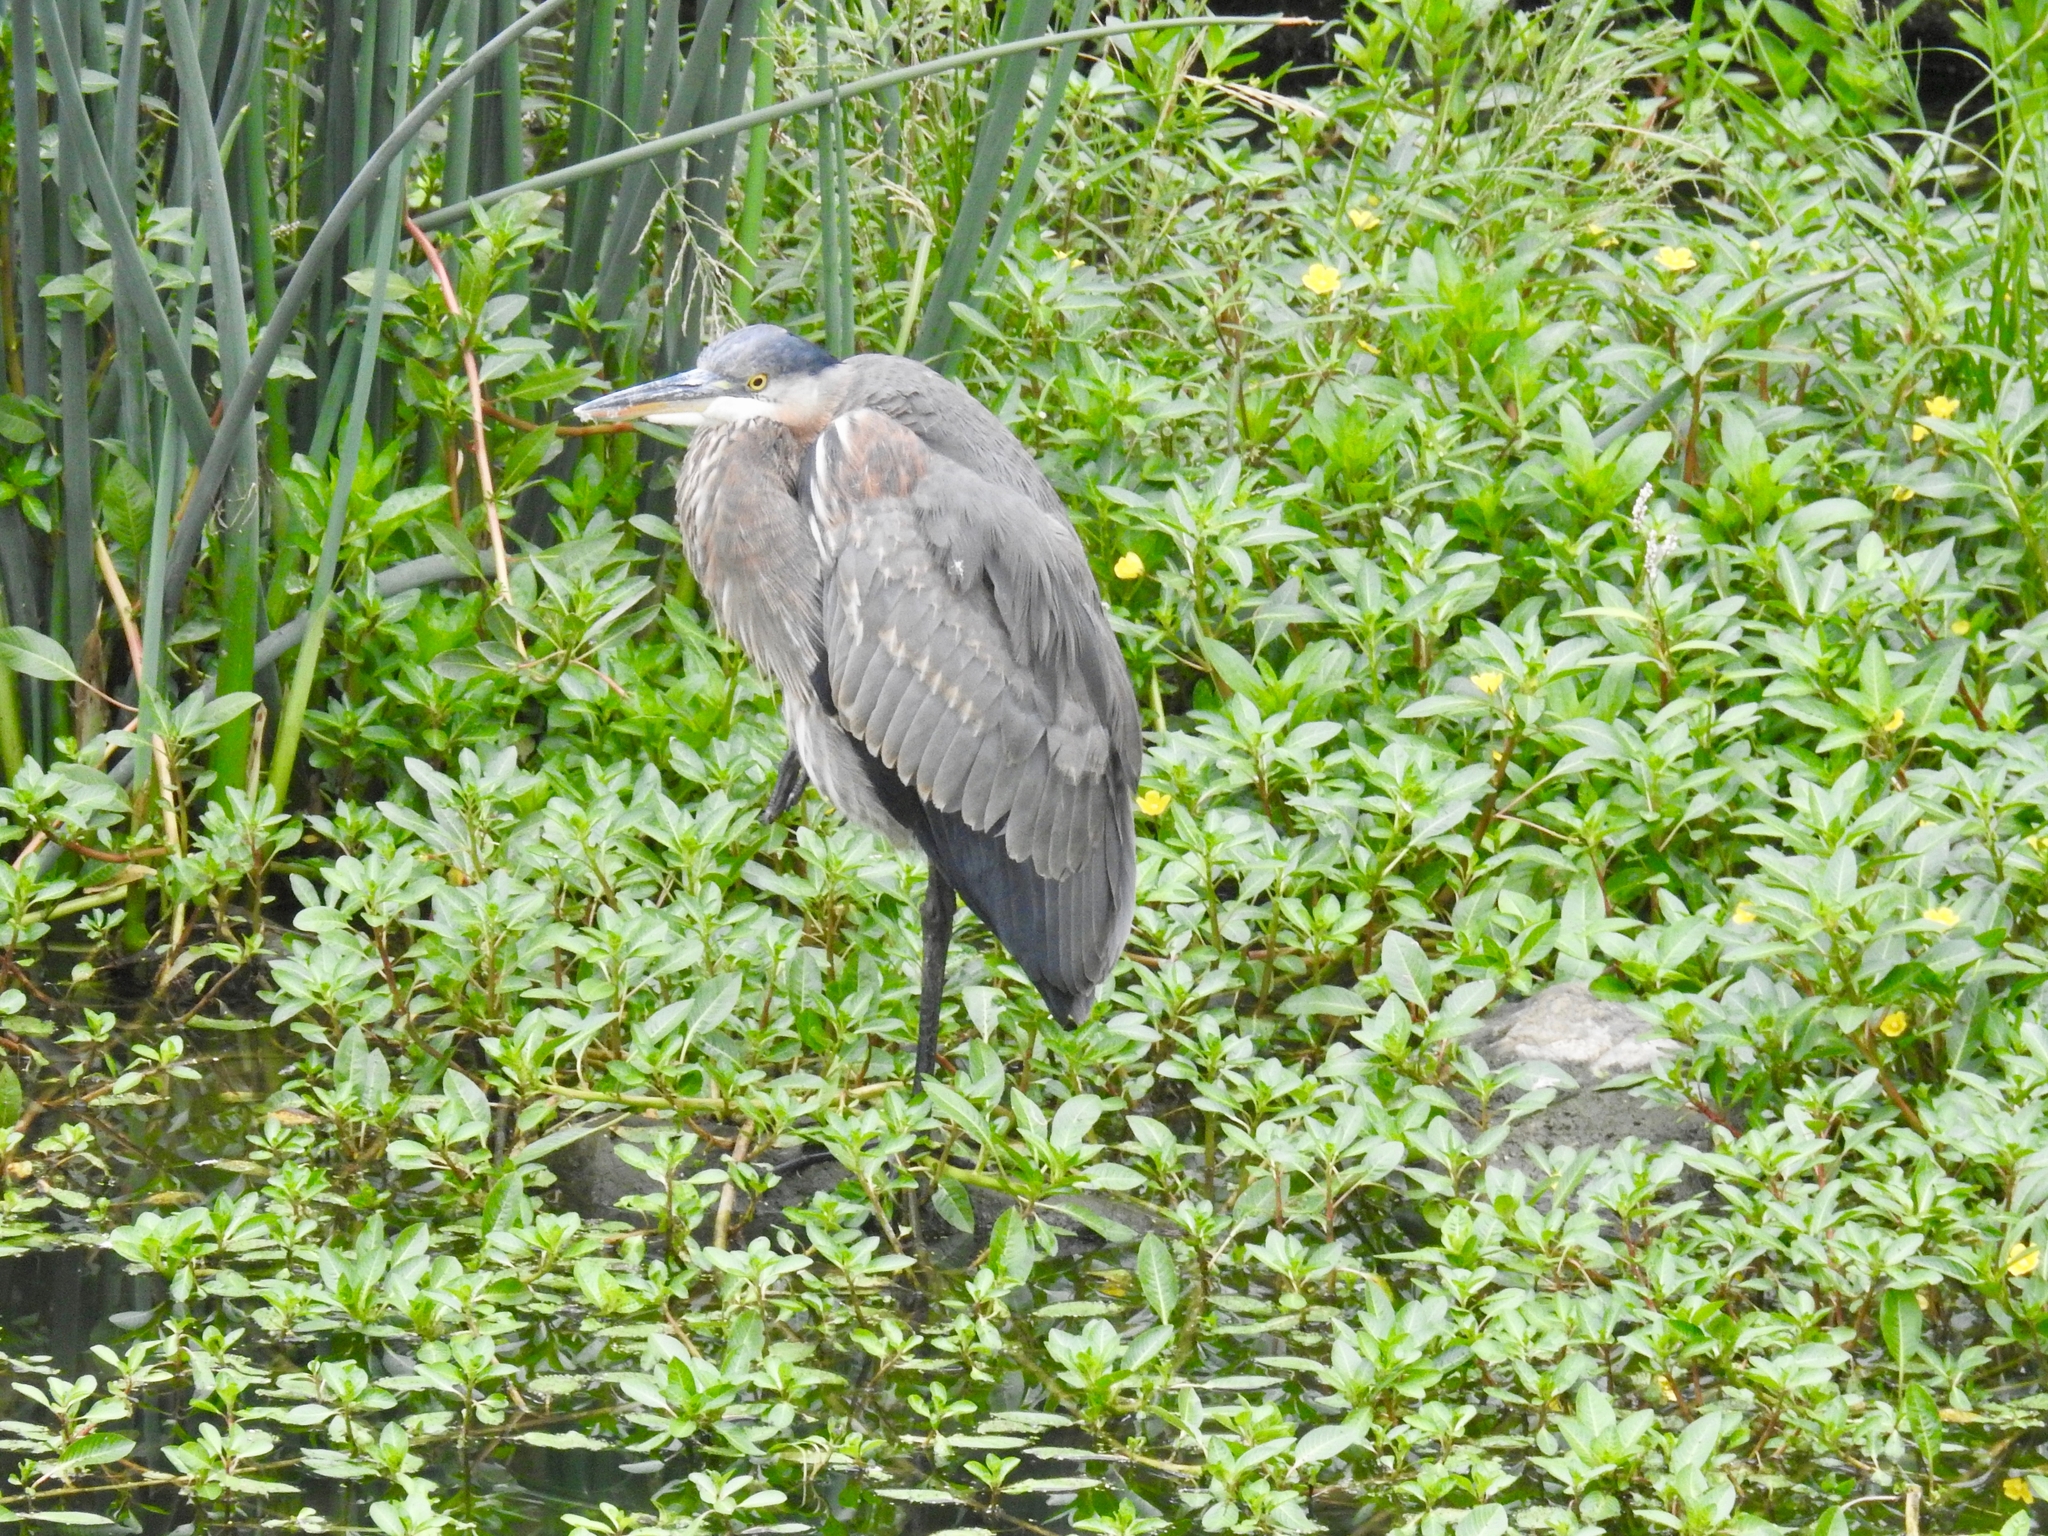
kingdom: Animalia
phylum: Chordata
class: Aves
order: Pelecaniformes
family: Ardeidae
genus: Ardea
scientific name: Ardea herodias
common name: Great blue heron
